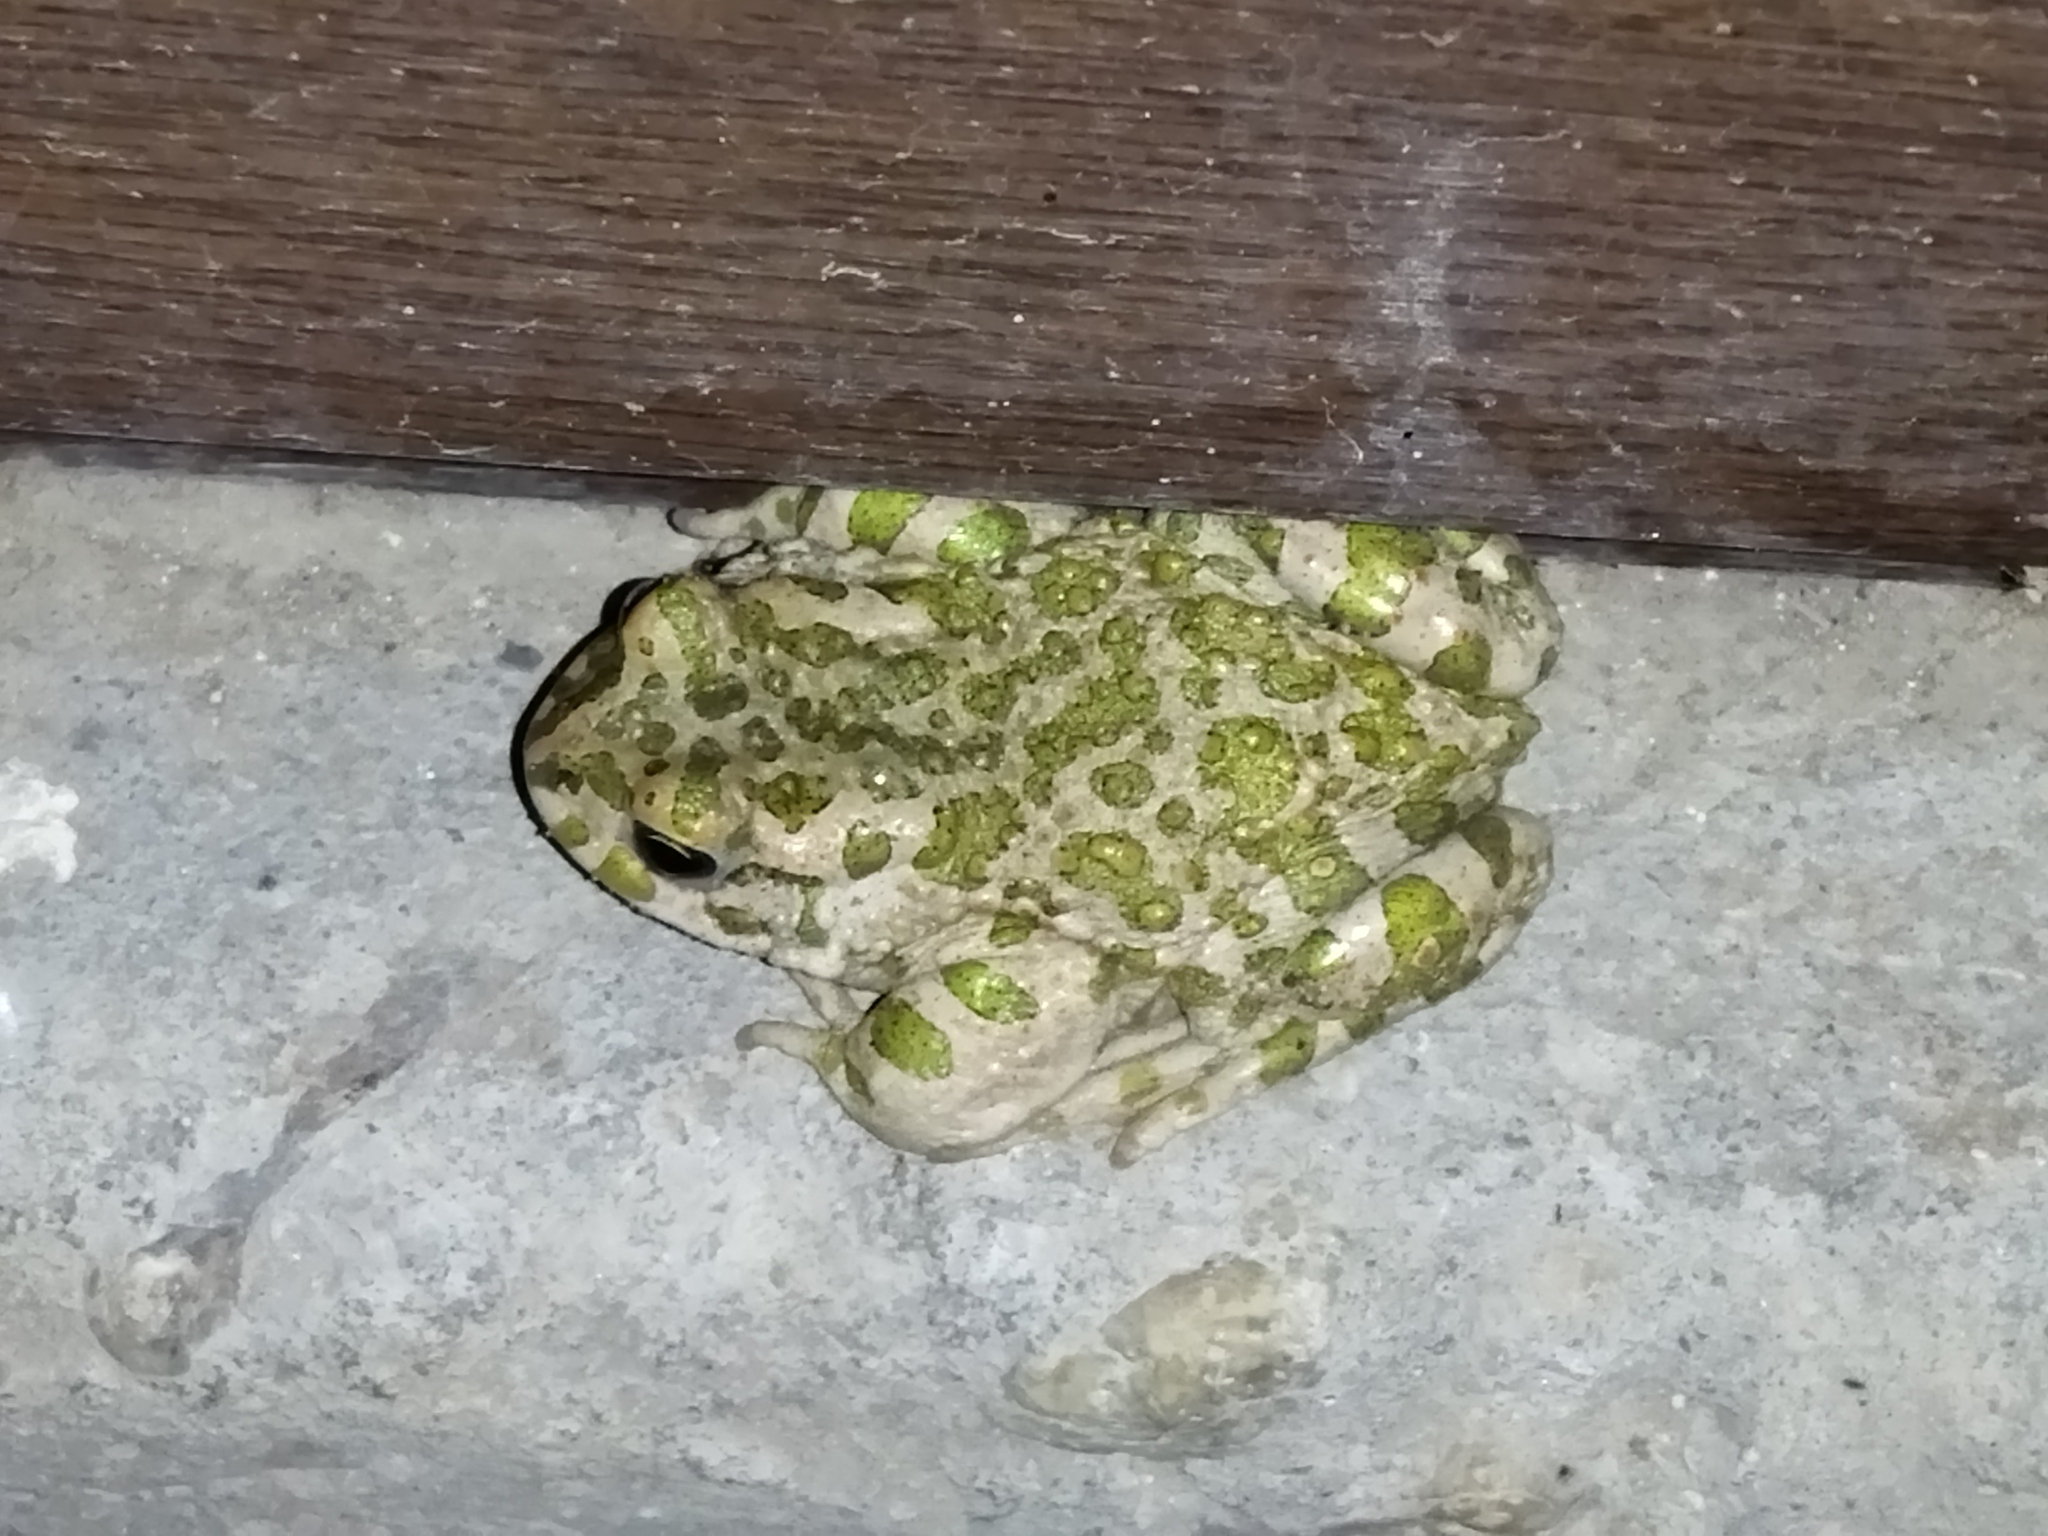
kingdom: Animalia
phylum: Chordata
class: Amphibia
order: Anura
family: Bufonidae
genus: Bufotes
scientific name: Bufotes viridis
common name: European green toad
